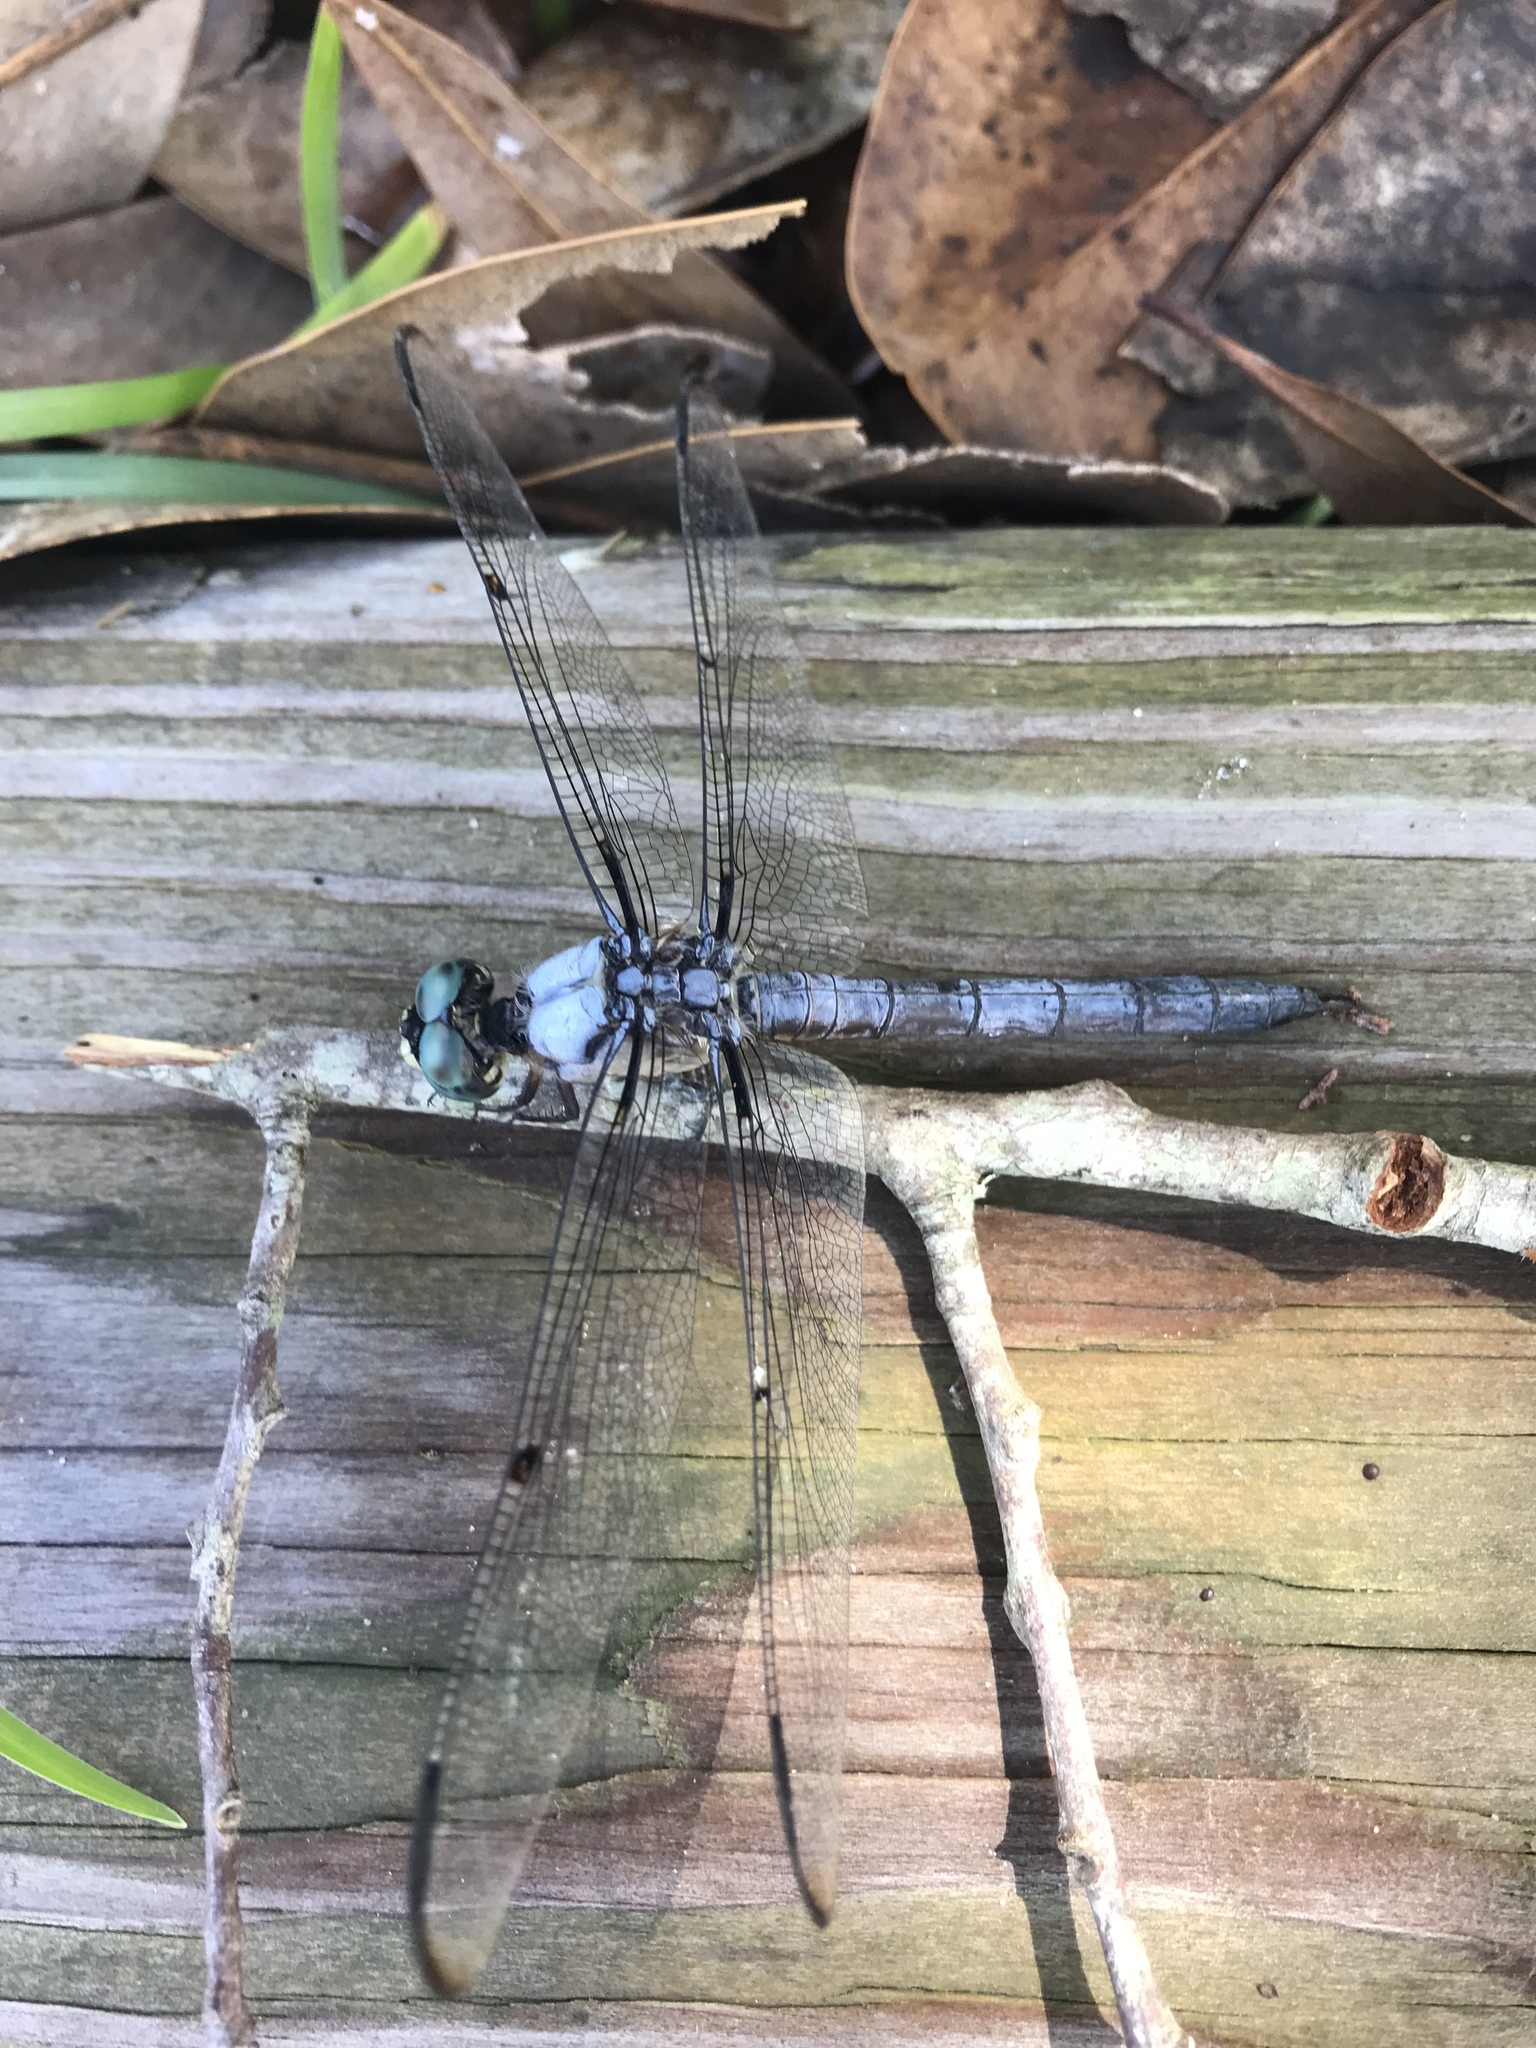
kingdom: Animalia
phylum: Arthropoda
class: Insecta
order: Odonata
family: Libellulidae
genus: Libellula
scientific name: Libellula vibrans
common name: Great blue skimmer
